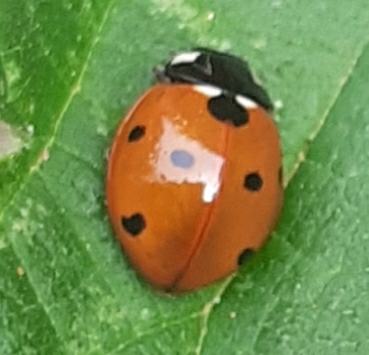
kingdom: Animalia
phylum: Arthropoda
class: Insecta
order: Coleoptera
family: Coccinellidae
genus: Coccinella
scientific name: Coccinella septempunctata
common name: Sevenspotted lady beetle
